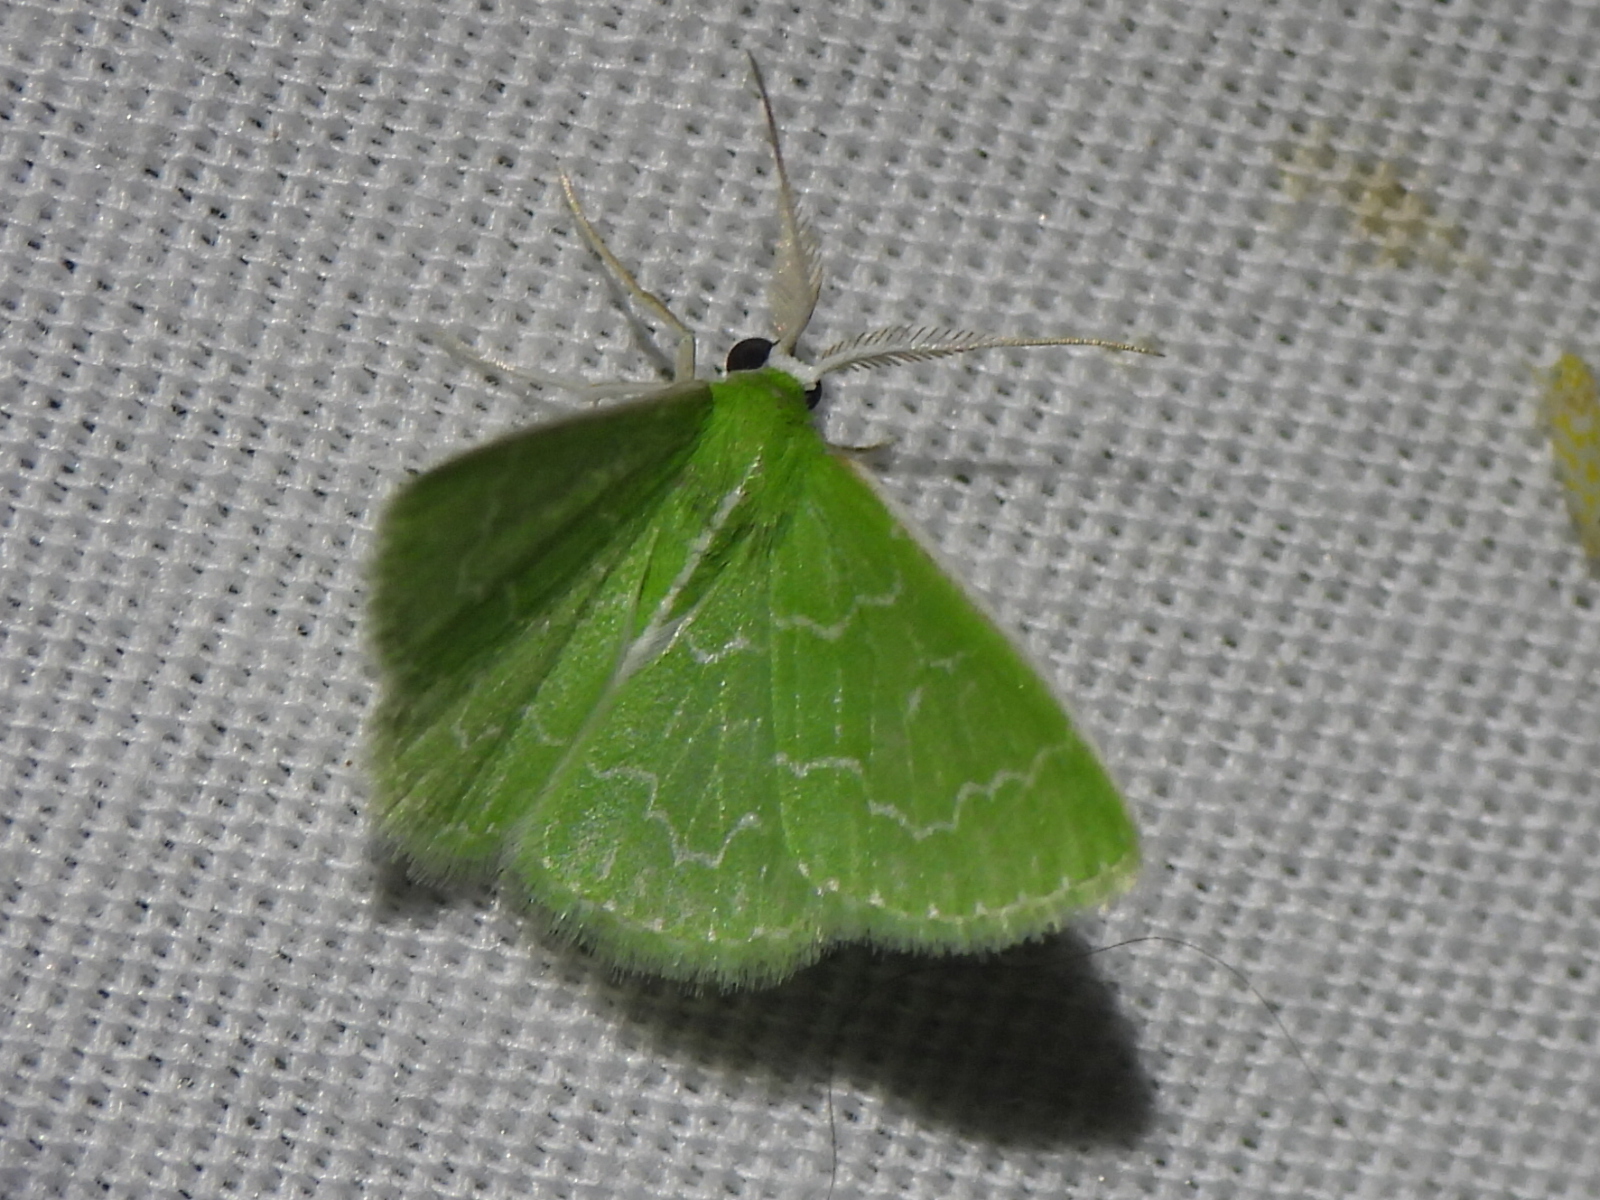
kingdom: Animalia
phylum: Arthropoda
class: Insecta
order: Lepidoptera
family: Geometridae
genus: Synchlora
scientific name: Synchlora frondaria
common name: Southern emerald
